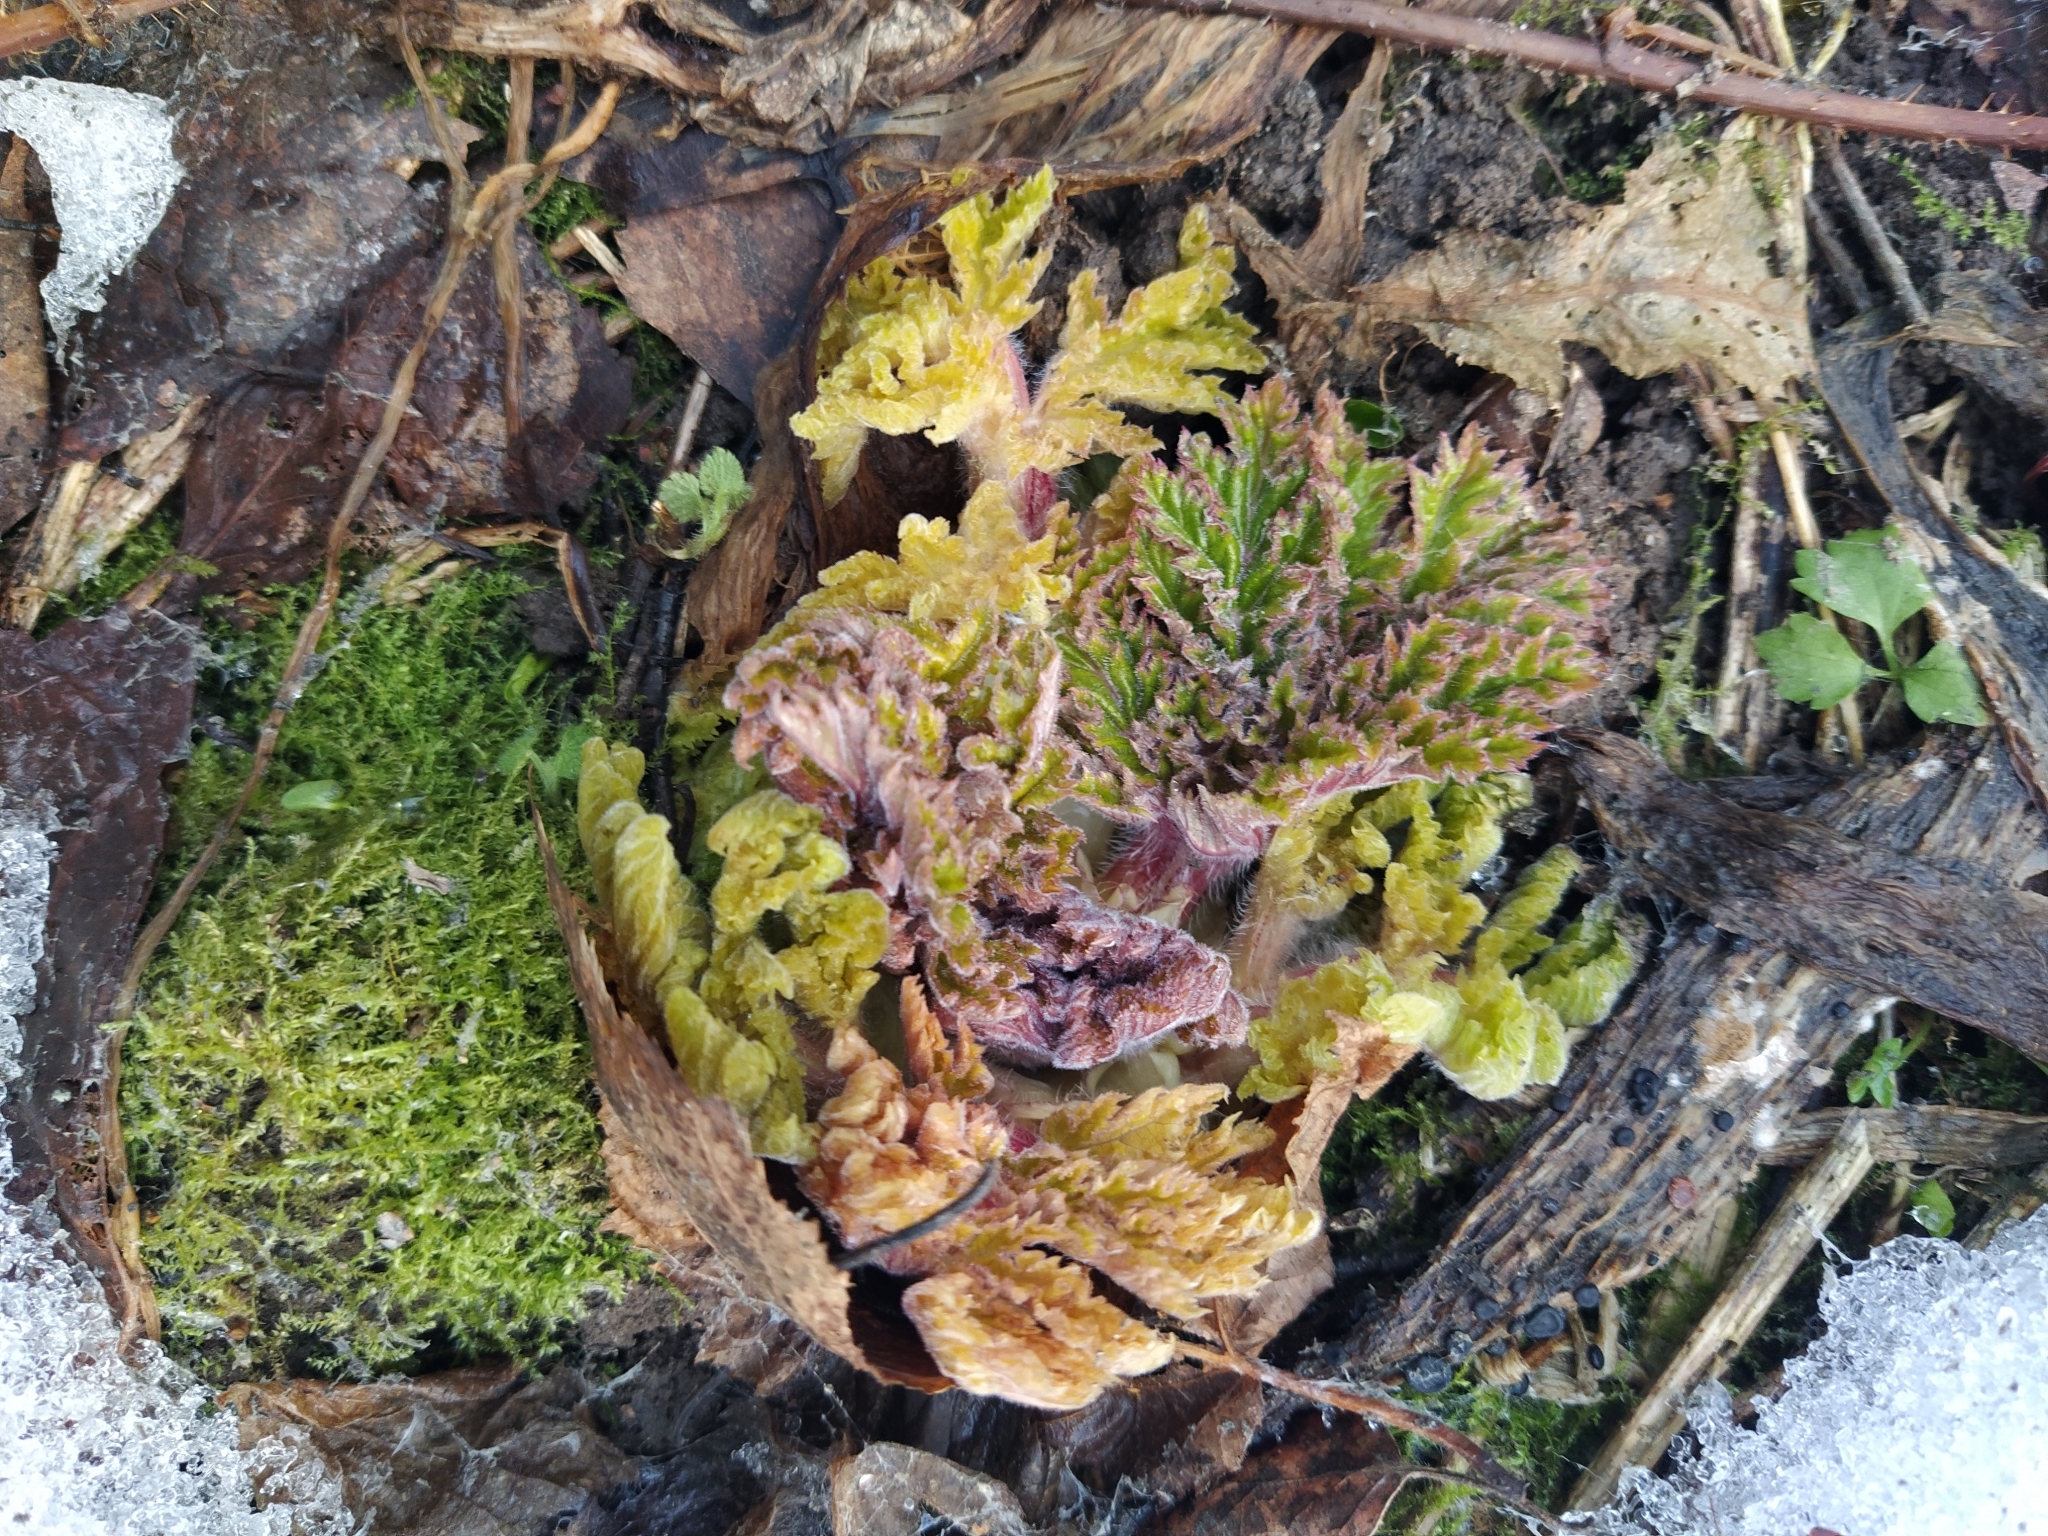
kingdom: Plantae
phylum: Tracheophyta
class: Magnoliopsida
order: Apiales
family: Apiaceae
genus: Heracleum
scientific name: Heracleum sosnowskyi
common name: Sosnowsky's hogweed
